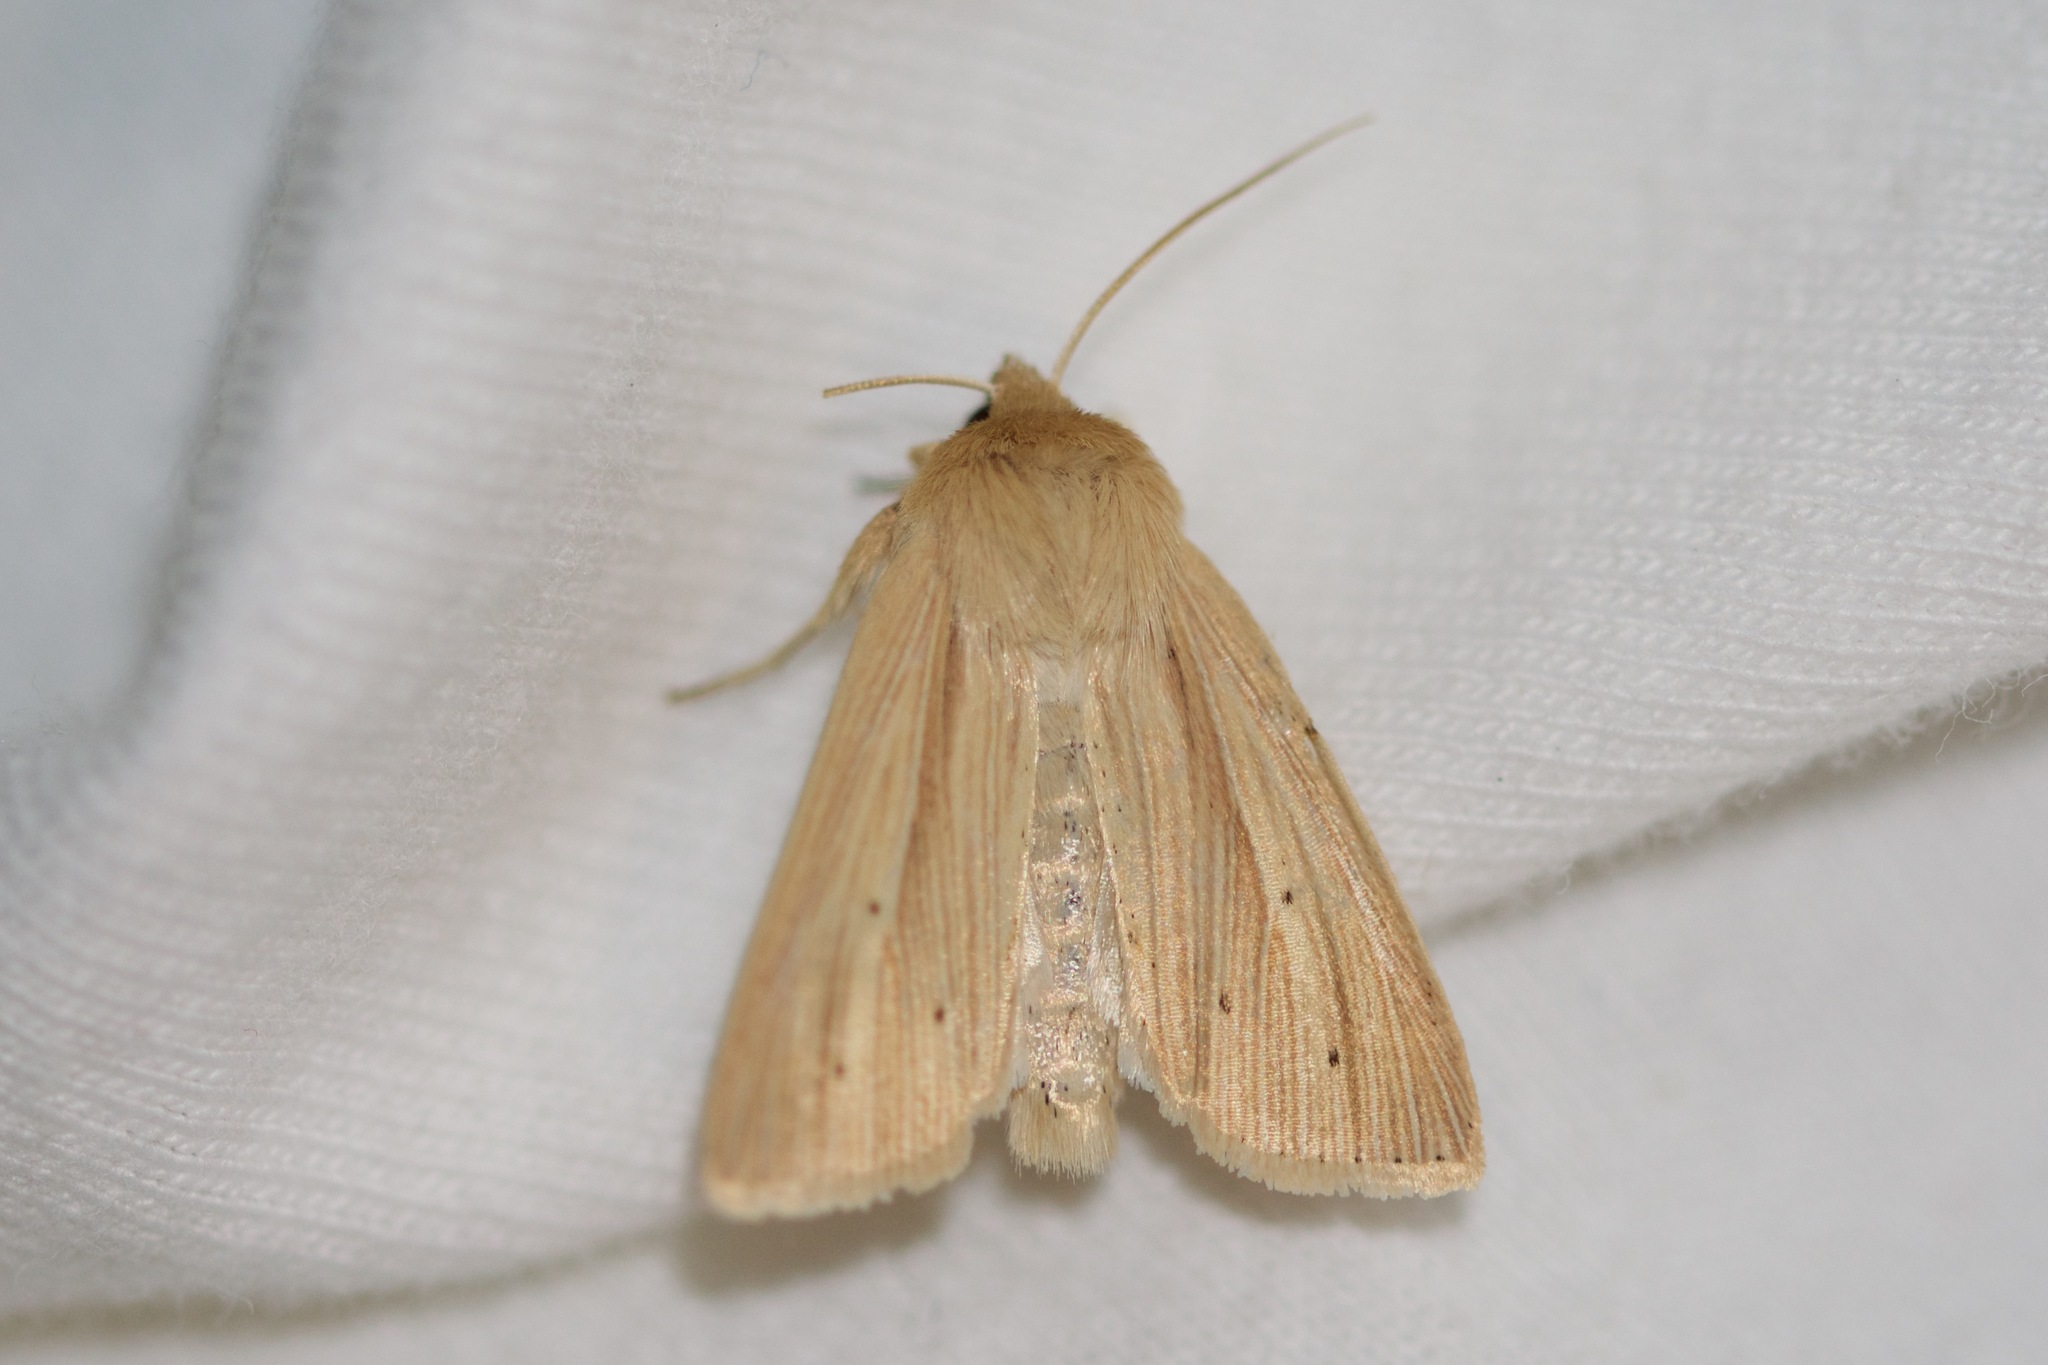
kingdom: Animalia
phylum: Arthropoda
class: Insecta
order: Lepidoptera
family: Noctuidae
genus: Mythimna
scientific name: Mythimna oxygala
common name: Lesser wainscot
